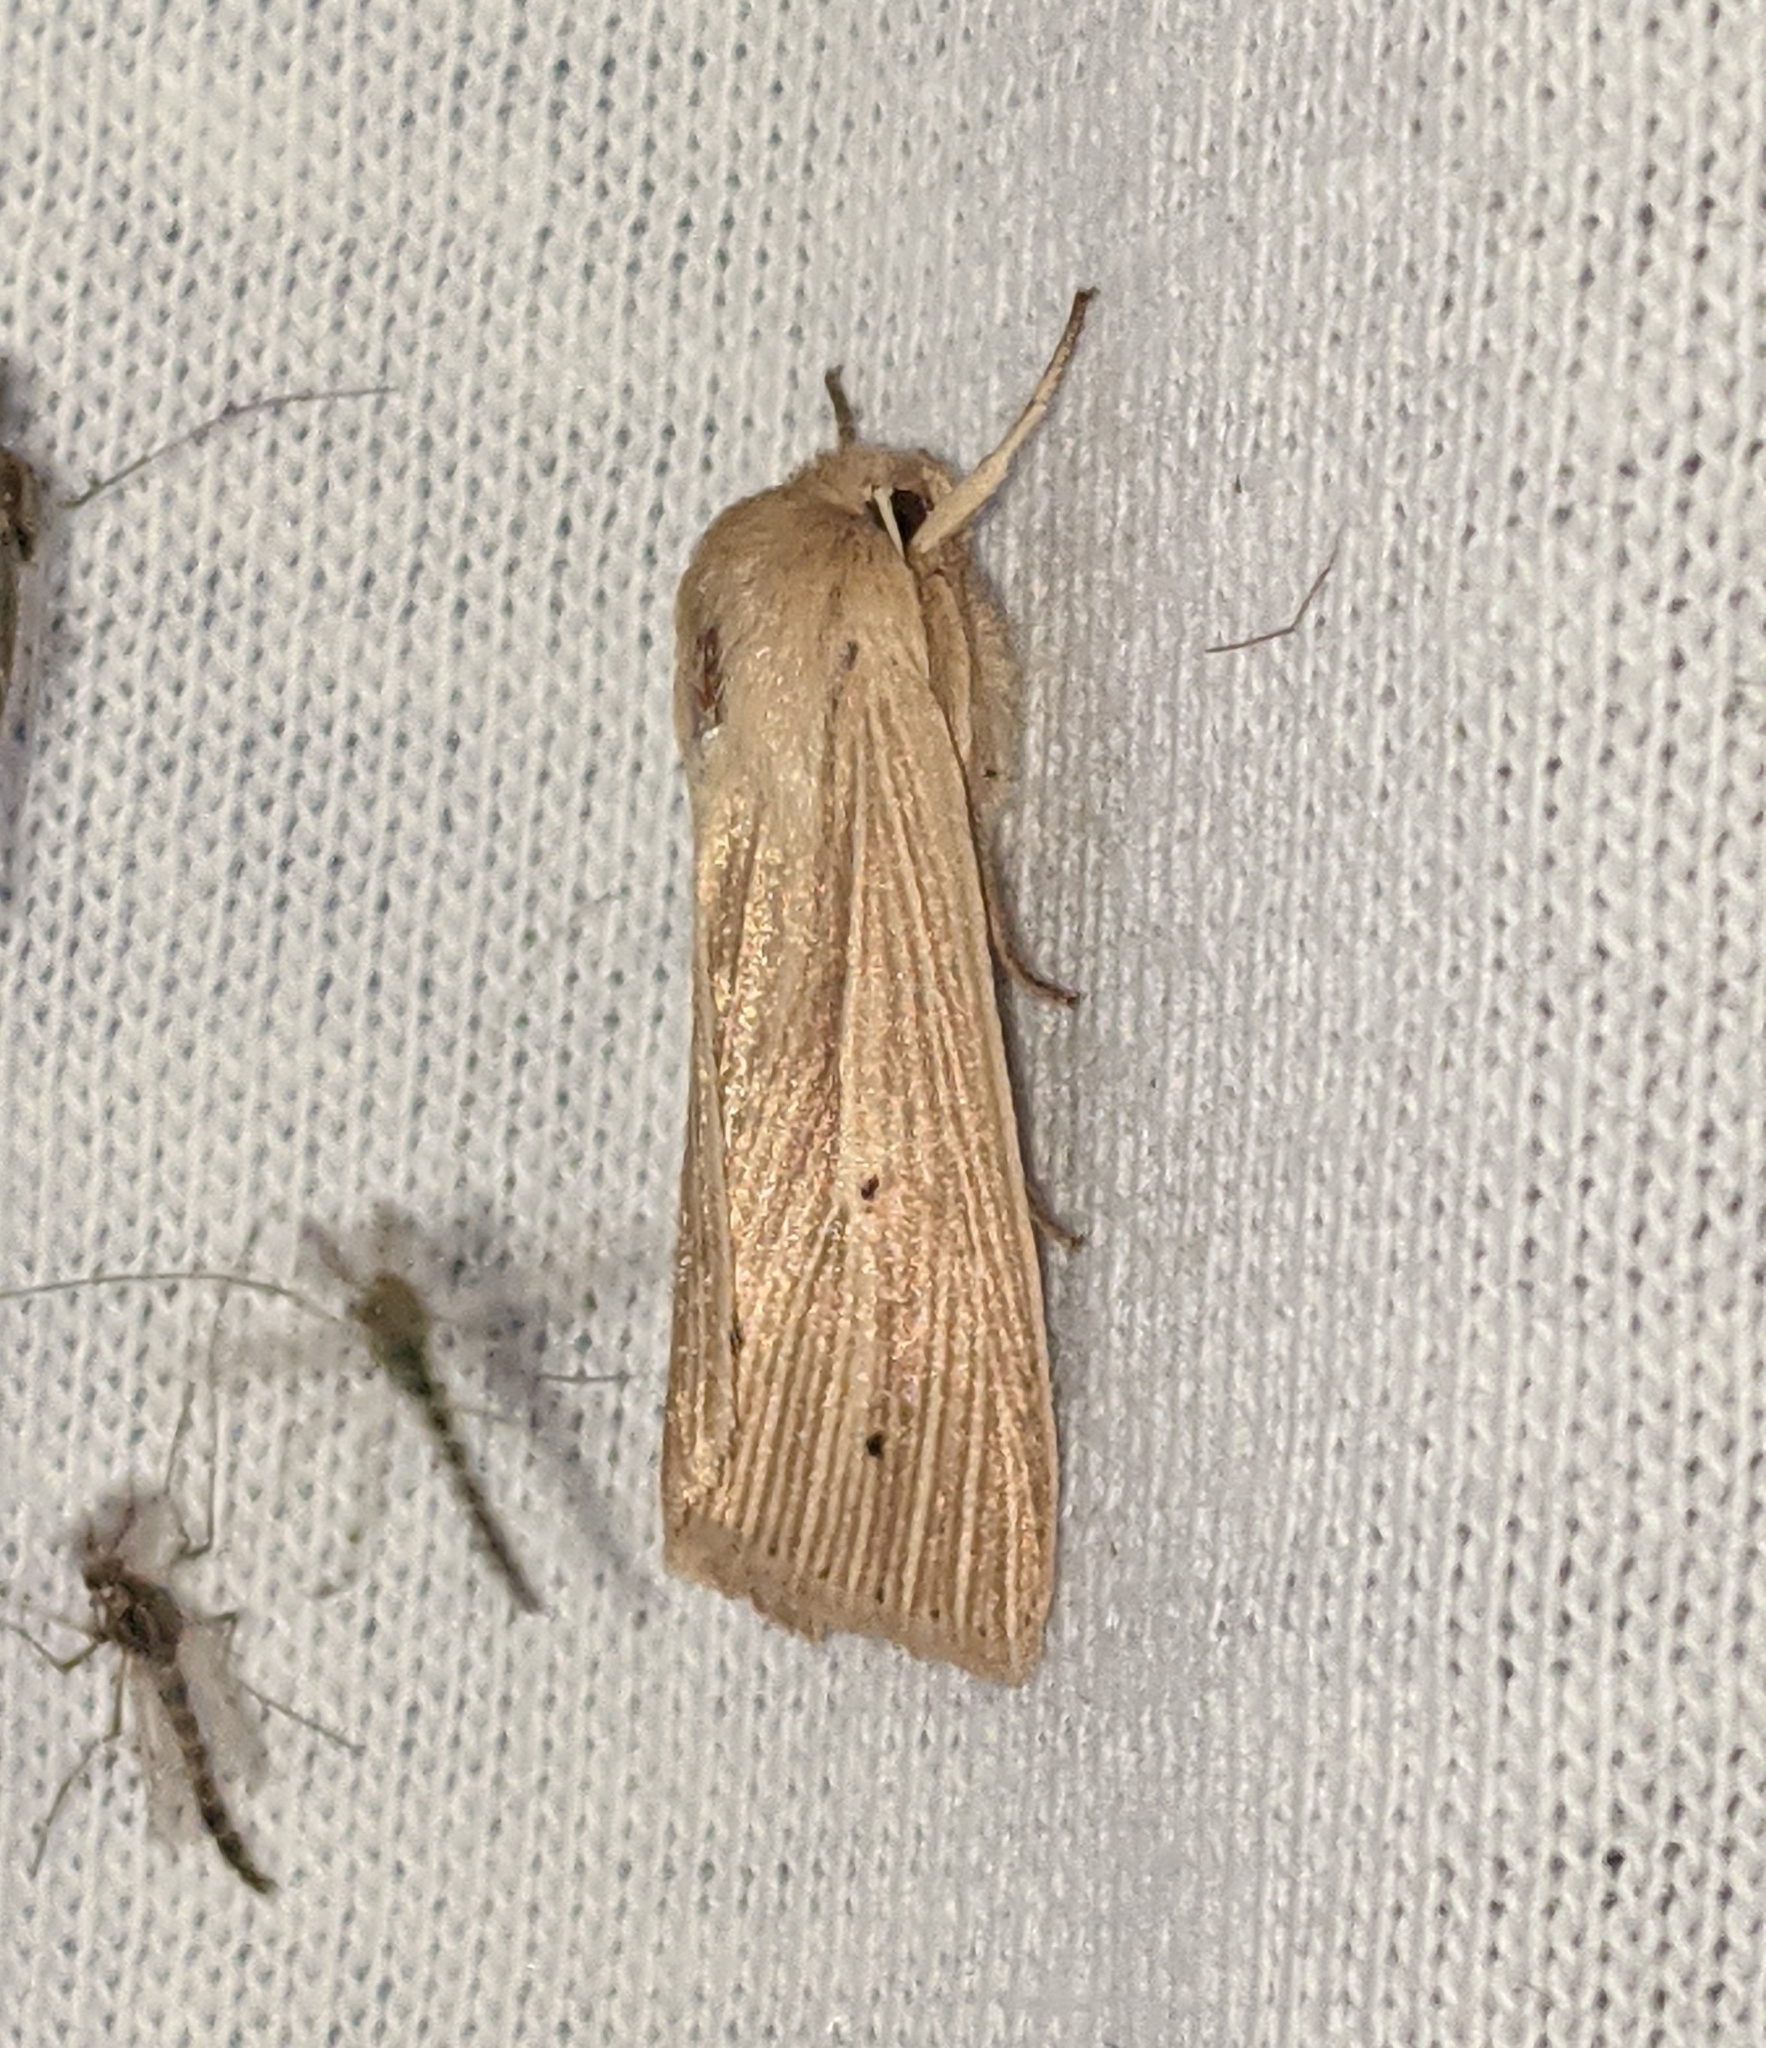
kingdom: Animalia
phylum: Arthropoda
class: Insecta
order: Lepidoptera
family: Noctuidae
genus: Mythimna
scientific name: Mythimna oxygala
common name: Lesser wainscot
